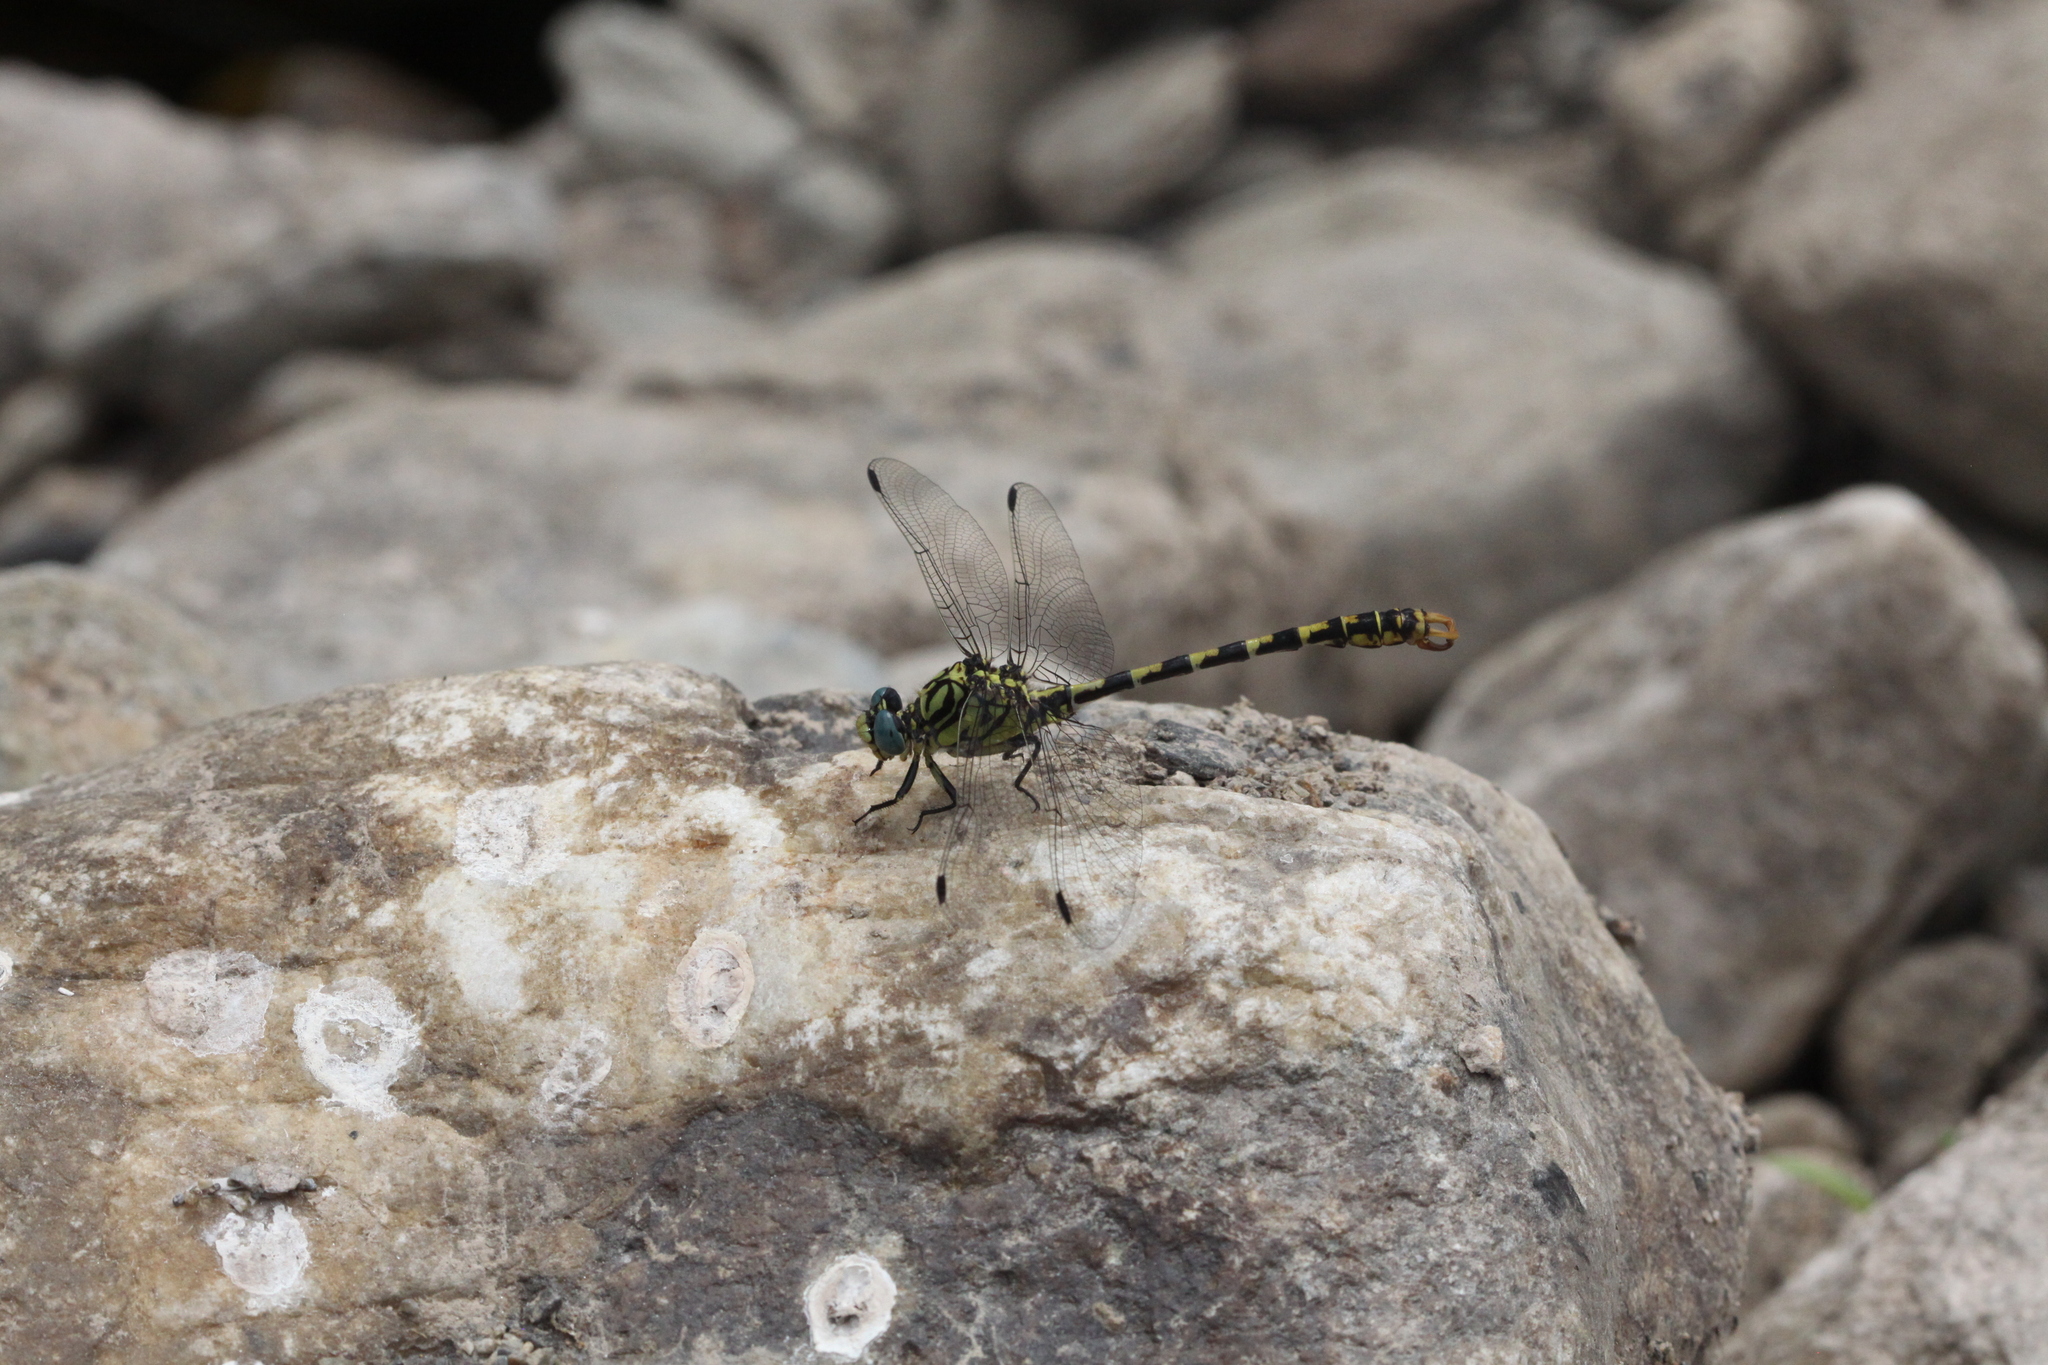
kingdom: Animalia
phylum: Arthropoda
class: Insecta
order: Odonata
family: Gomphidae
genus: Onychogomphus
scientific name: Onychogomphus forcipatus
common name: Small pincertail
